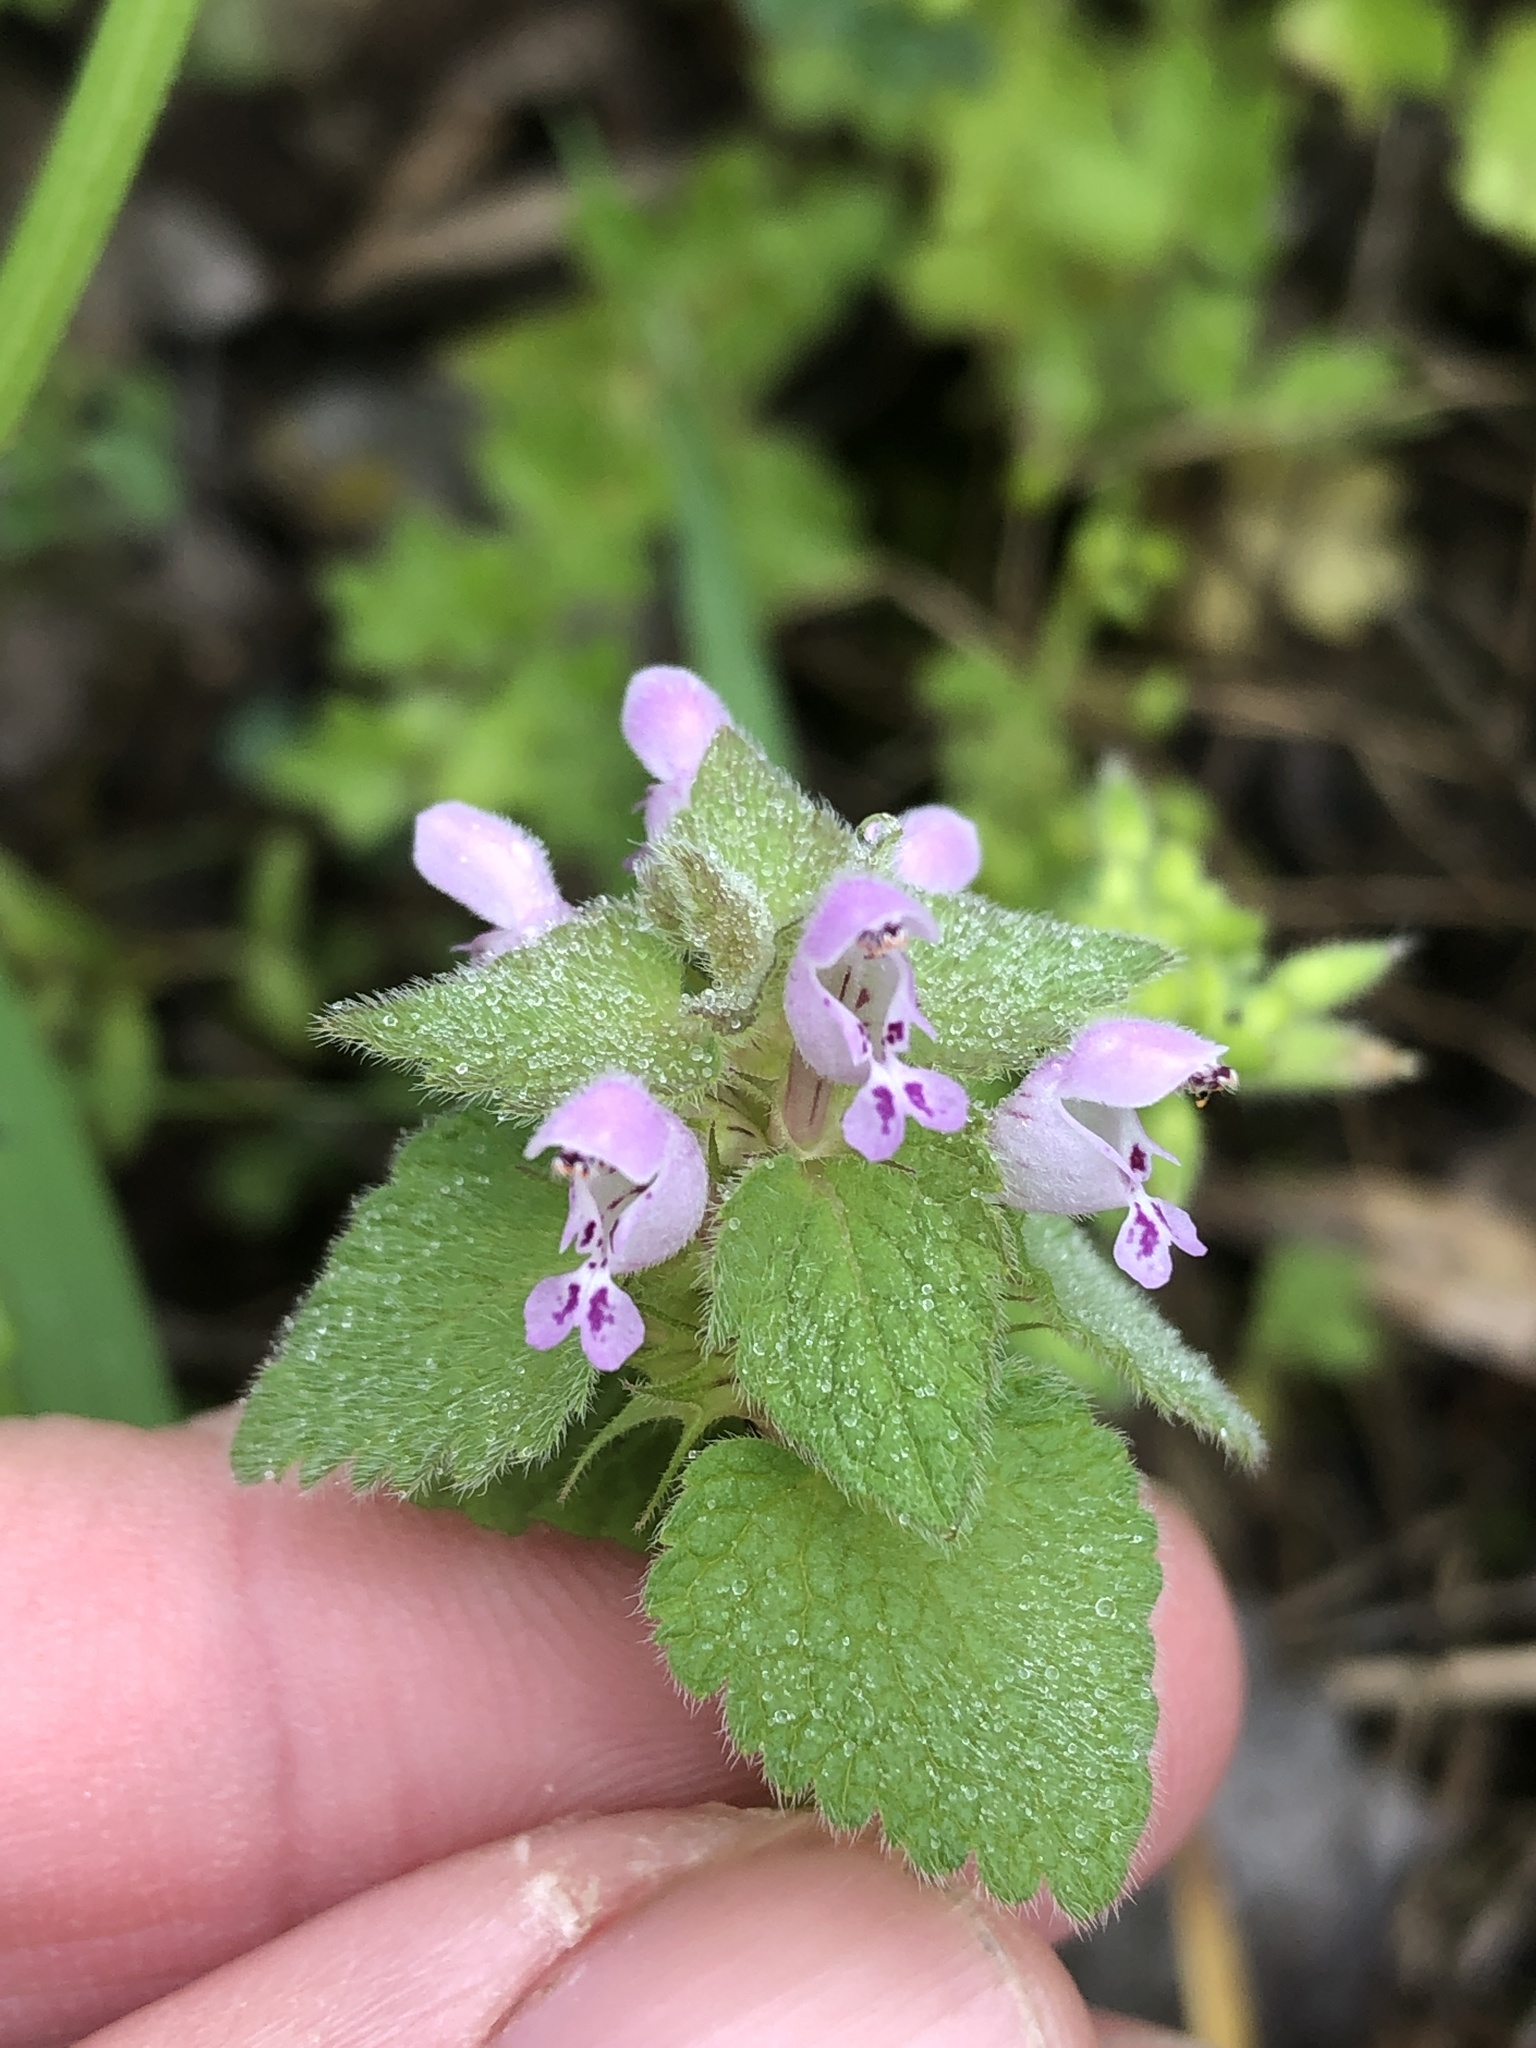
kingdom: Plantae
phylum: Tracheophyta
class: Magnoliopsida
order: Lamiales
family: Lamiaceae
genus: Lamium
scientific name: Lamium purpureum
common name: Red dead-nettle
